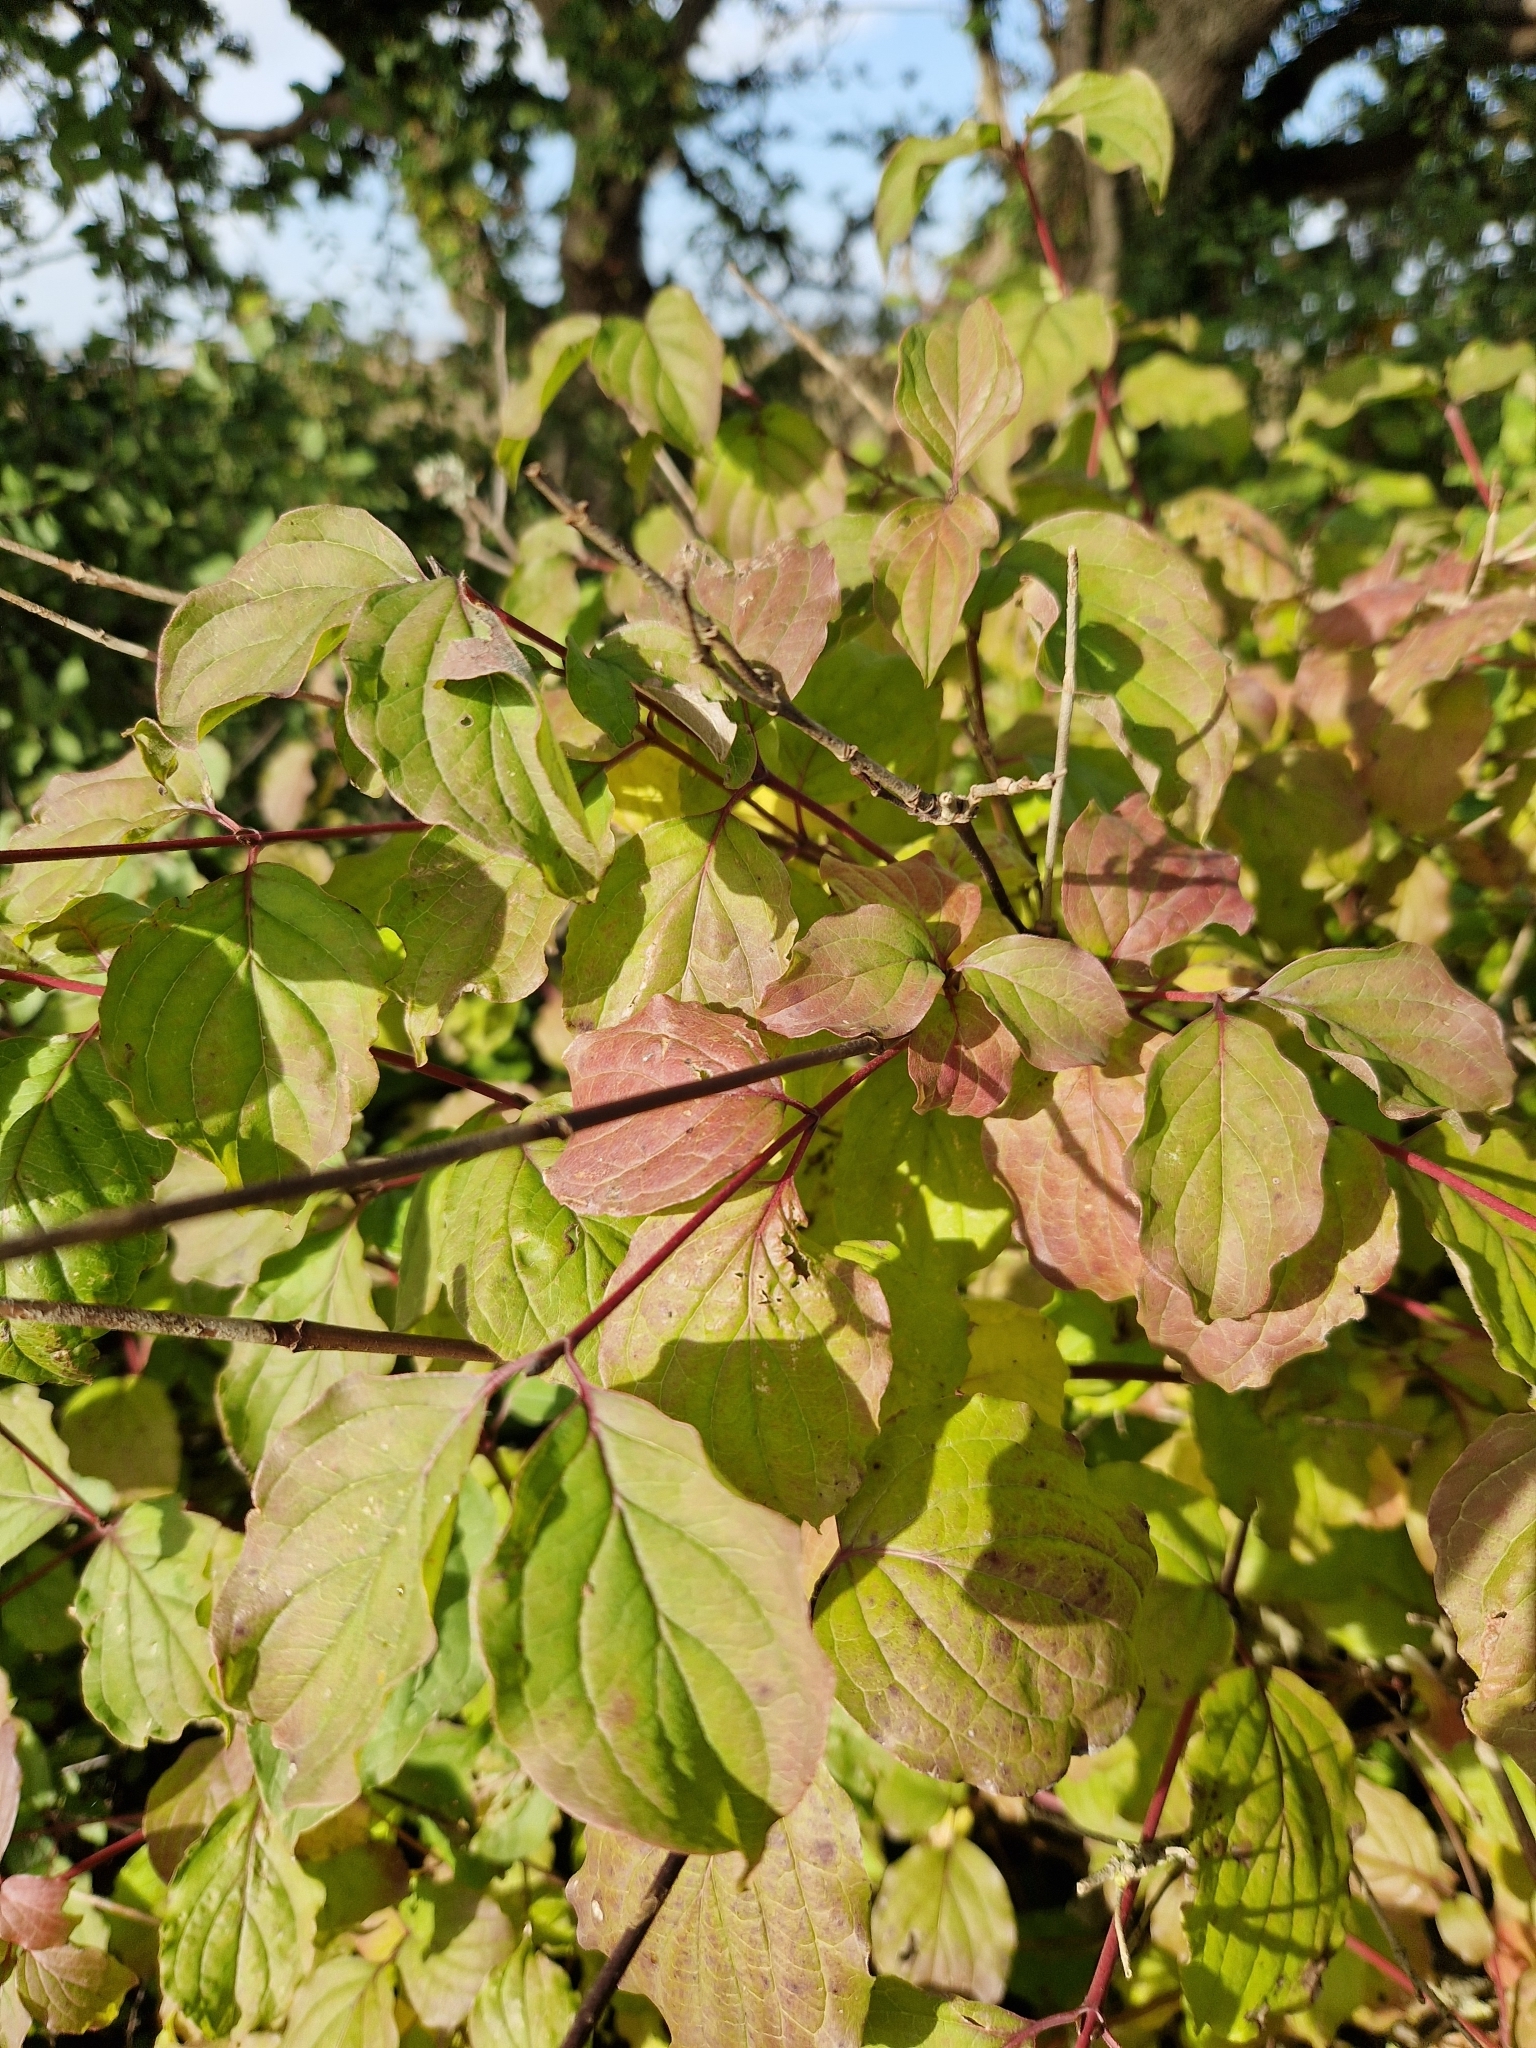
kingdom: Plantae
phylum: Tracheophyta
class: Magnoliopsida
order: Cornales
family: Cornaceae
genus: Cornus
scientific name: Cornus sanguinea
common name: Dogwood
